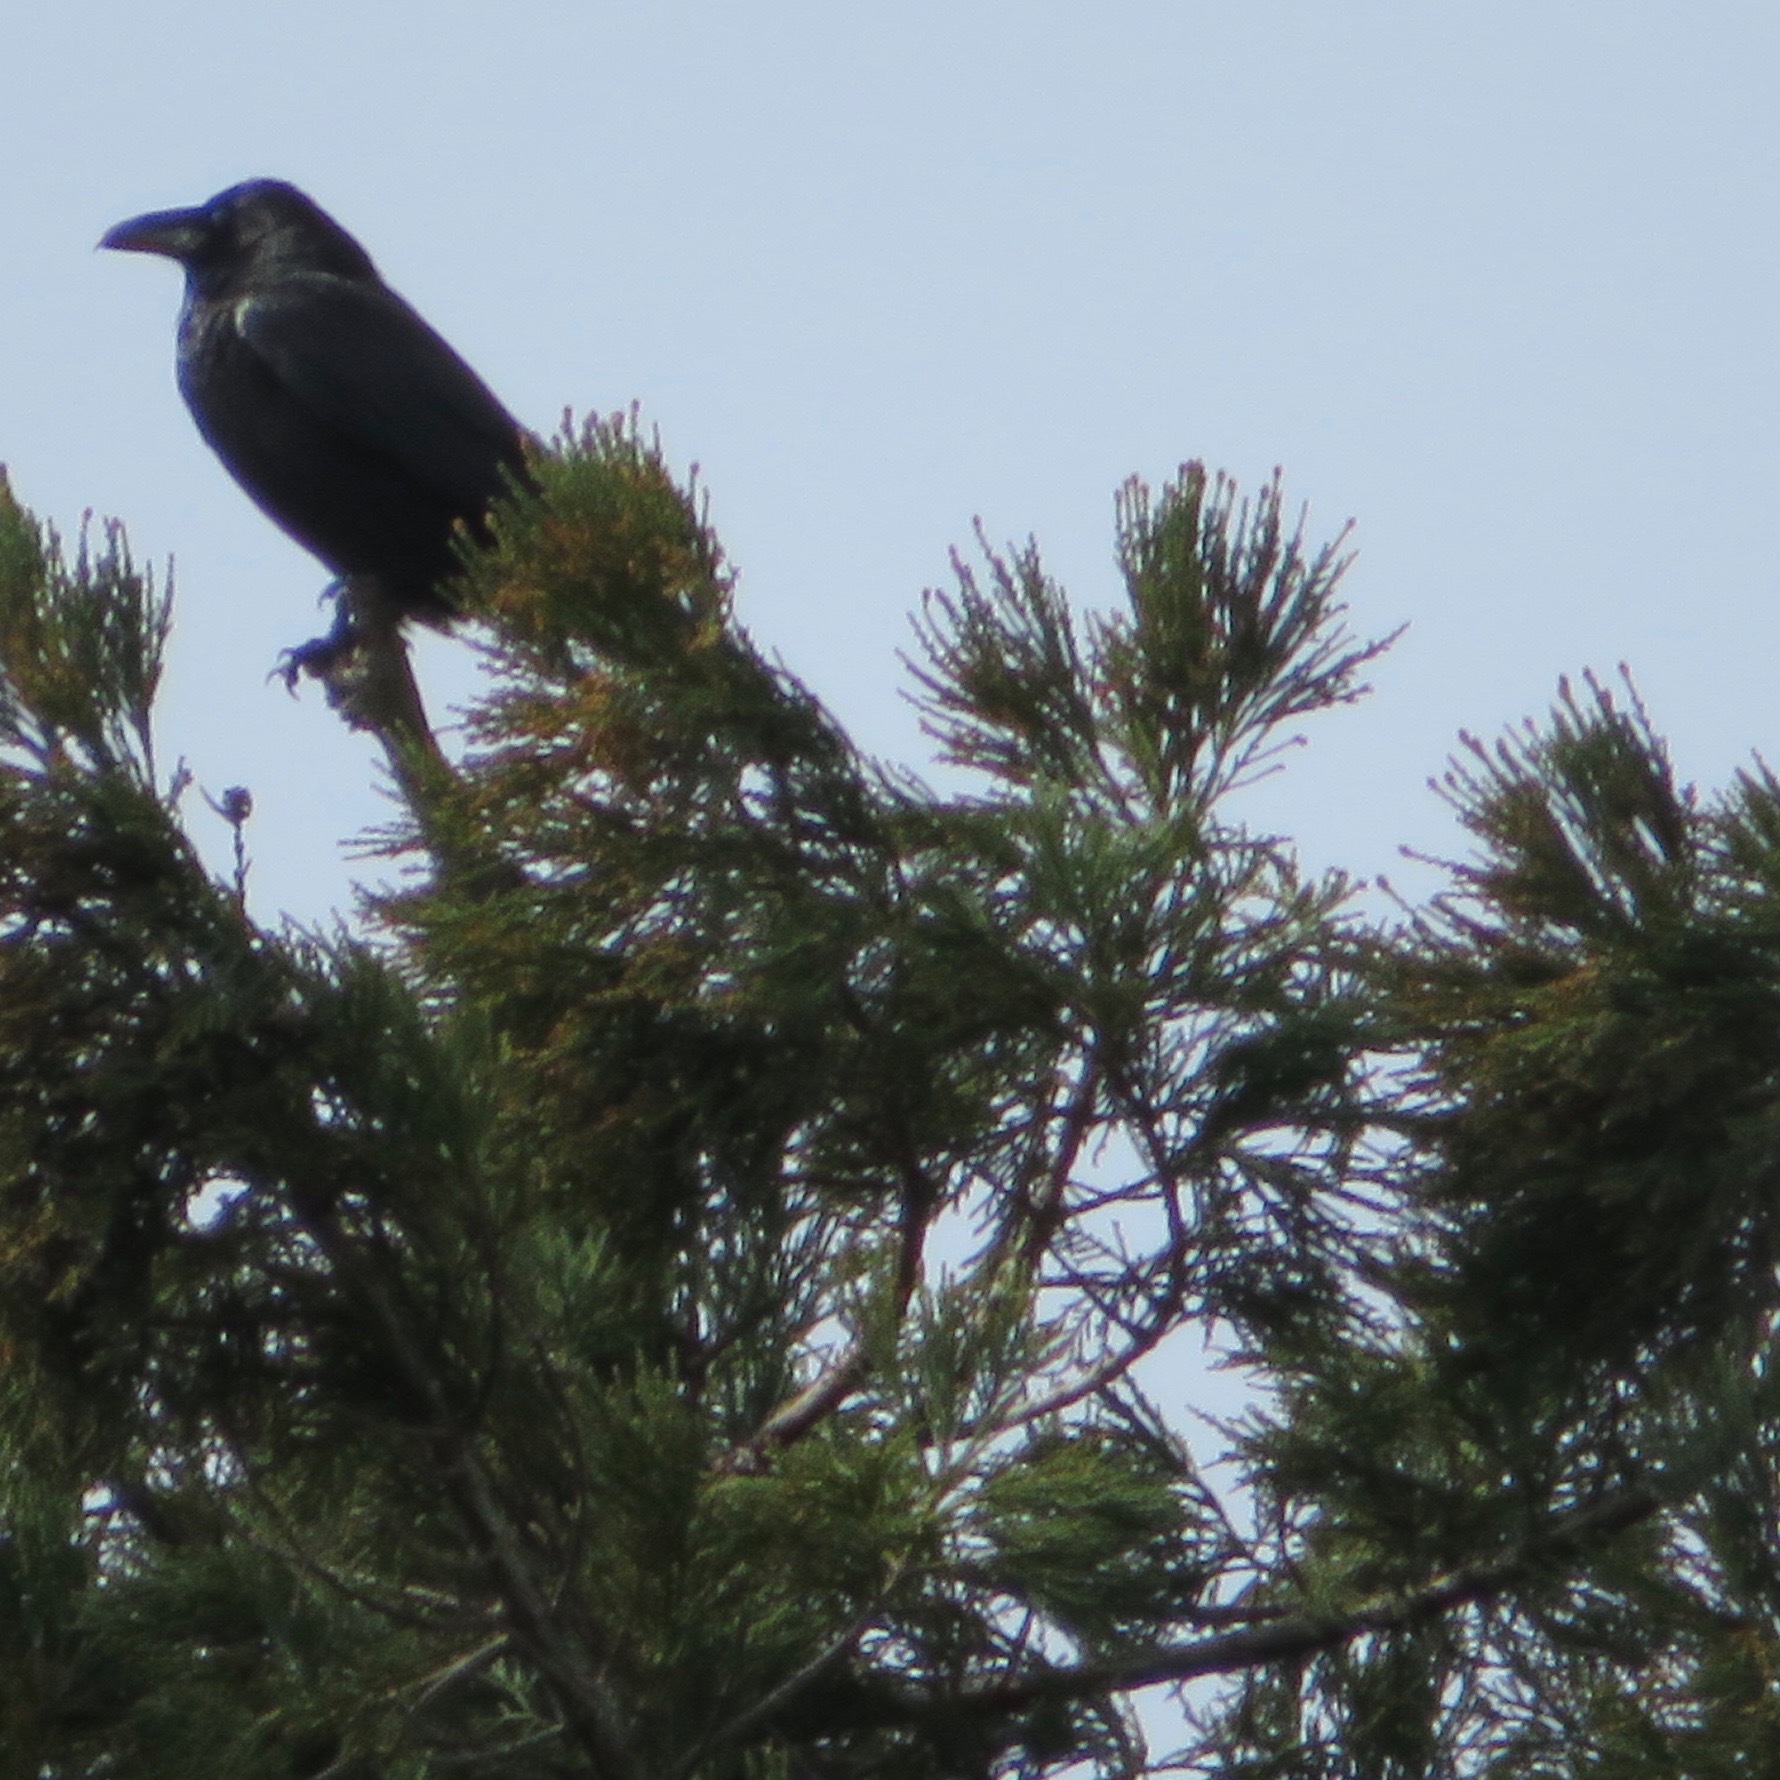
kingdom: Animalia
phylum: Chordata
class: Aves
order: Passeriformes
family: Corvidae
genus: Corvus
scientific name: Corvus corax
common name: Common raven
